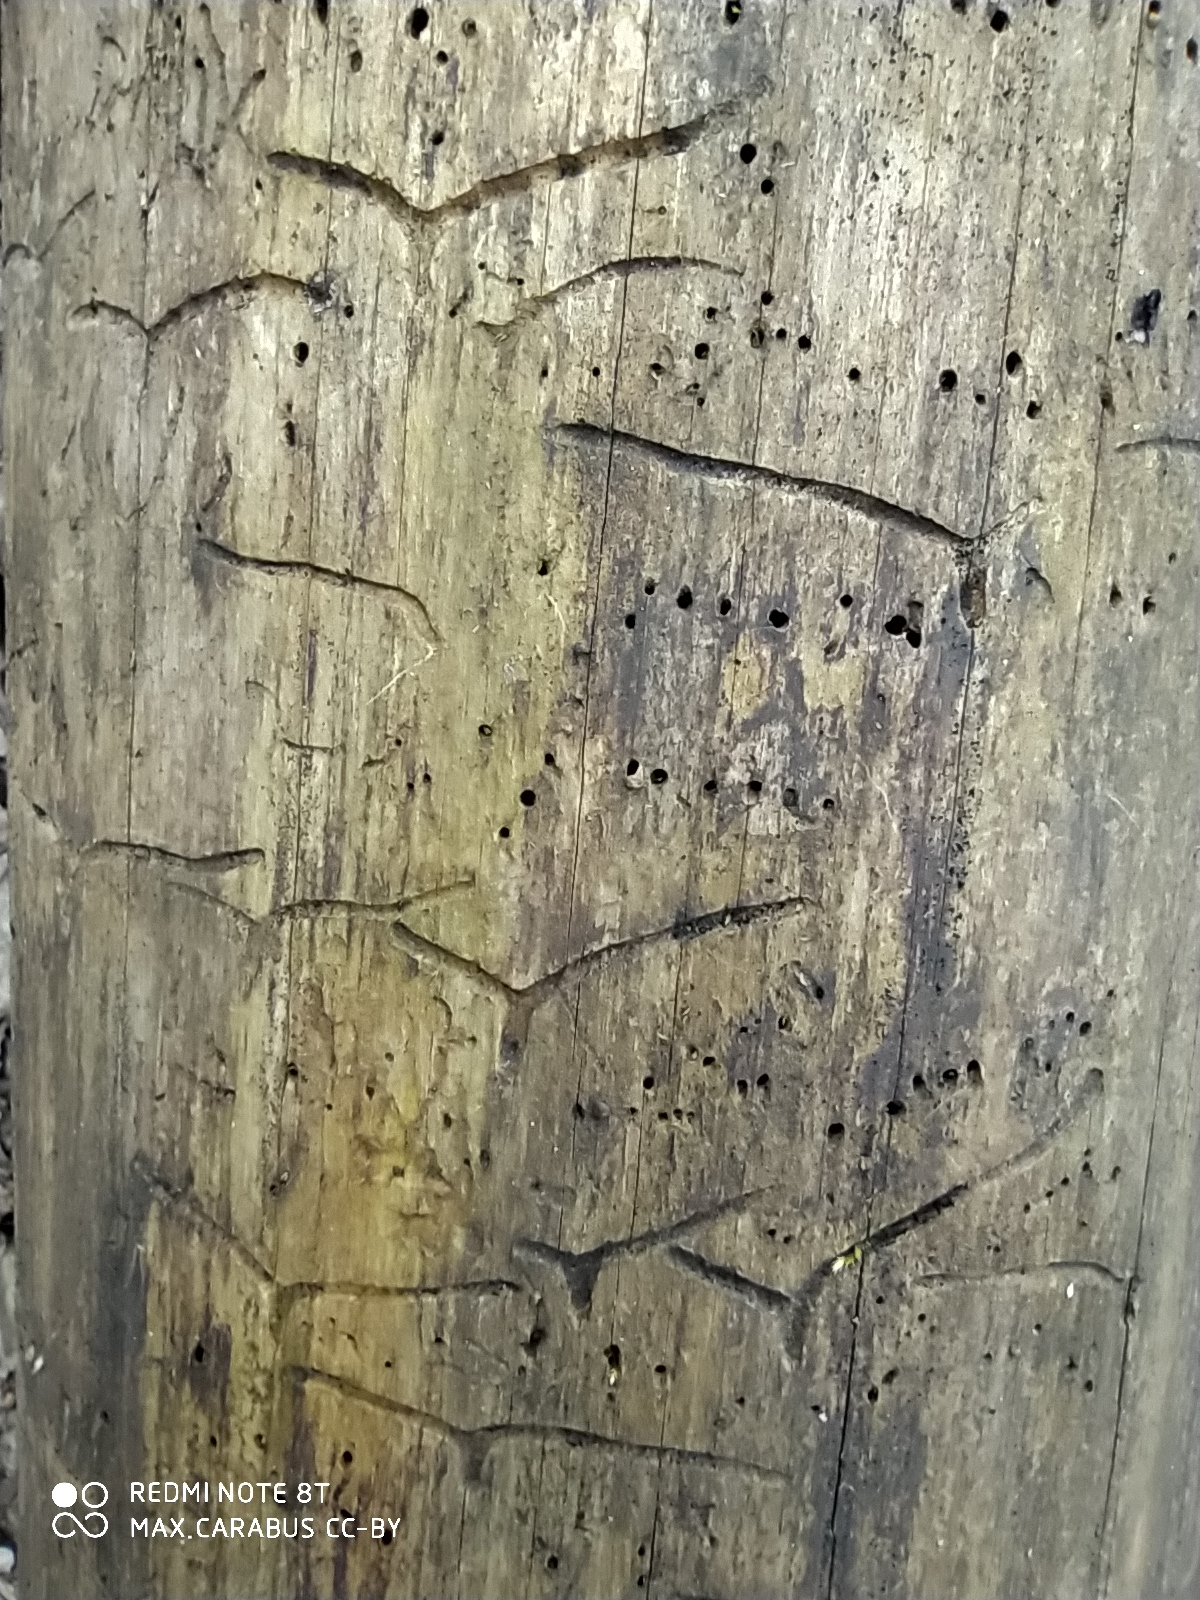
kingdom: Animalia
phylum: Arthropoda
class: Insecta
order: Coleoptera
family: Curculionidae
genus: Tomicus
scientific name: Tomicus minor
